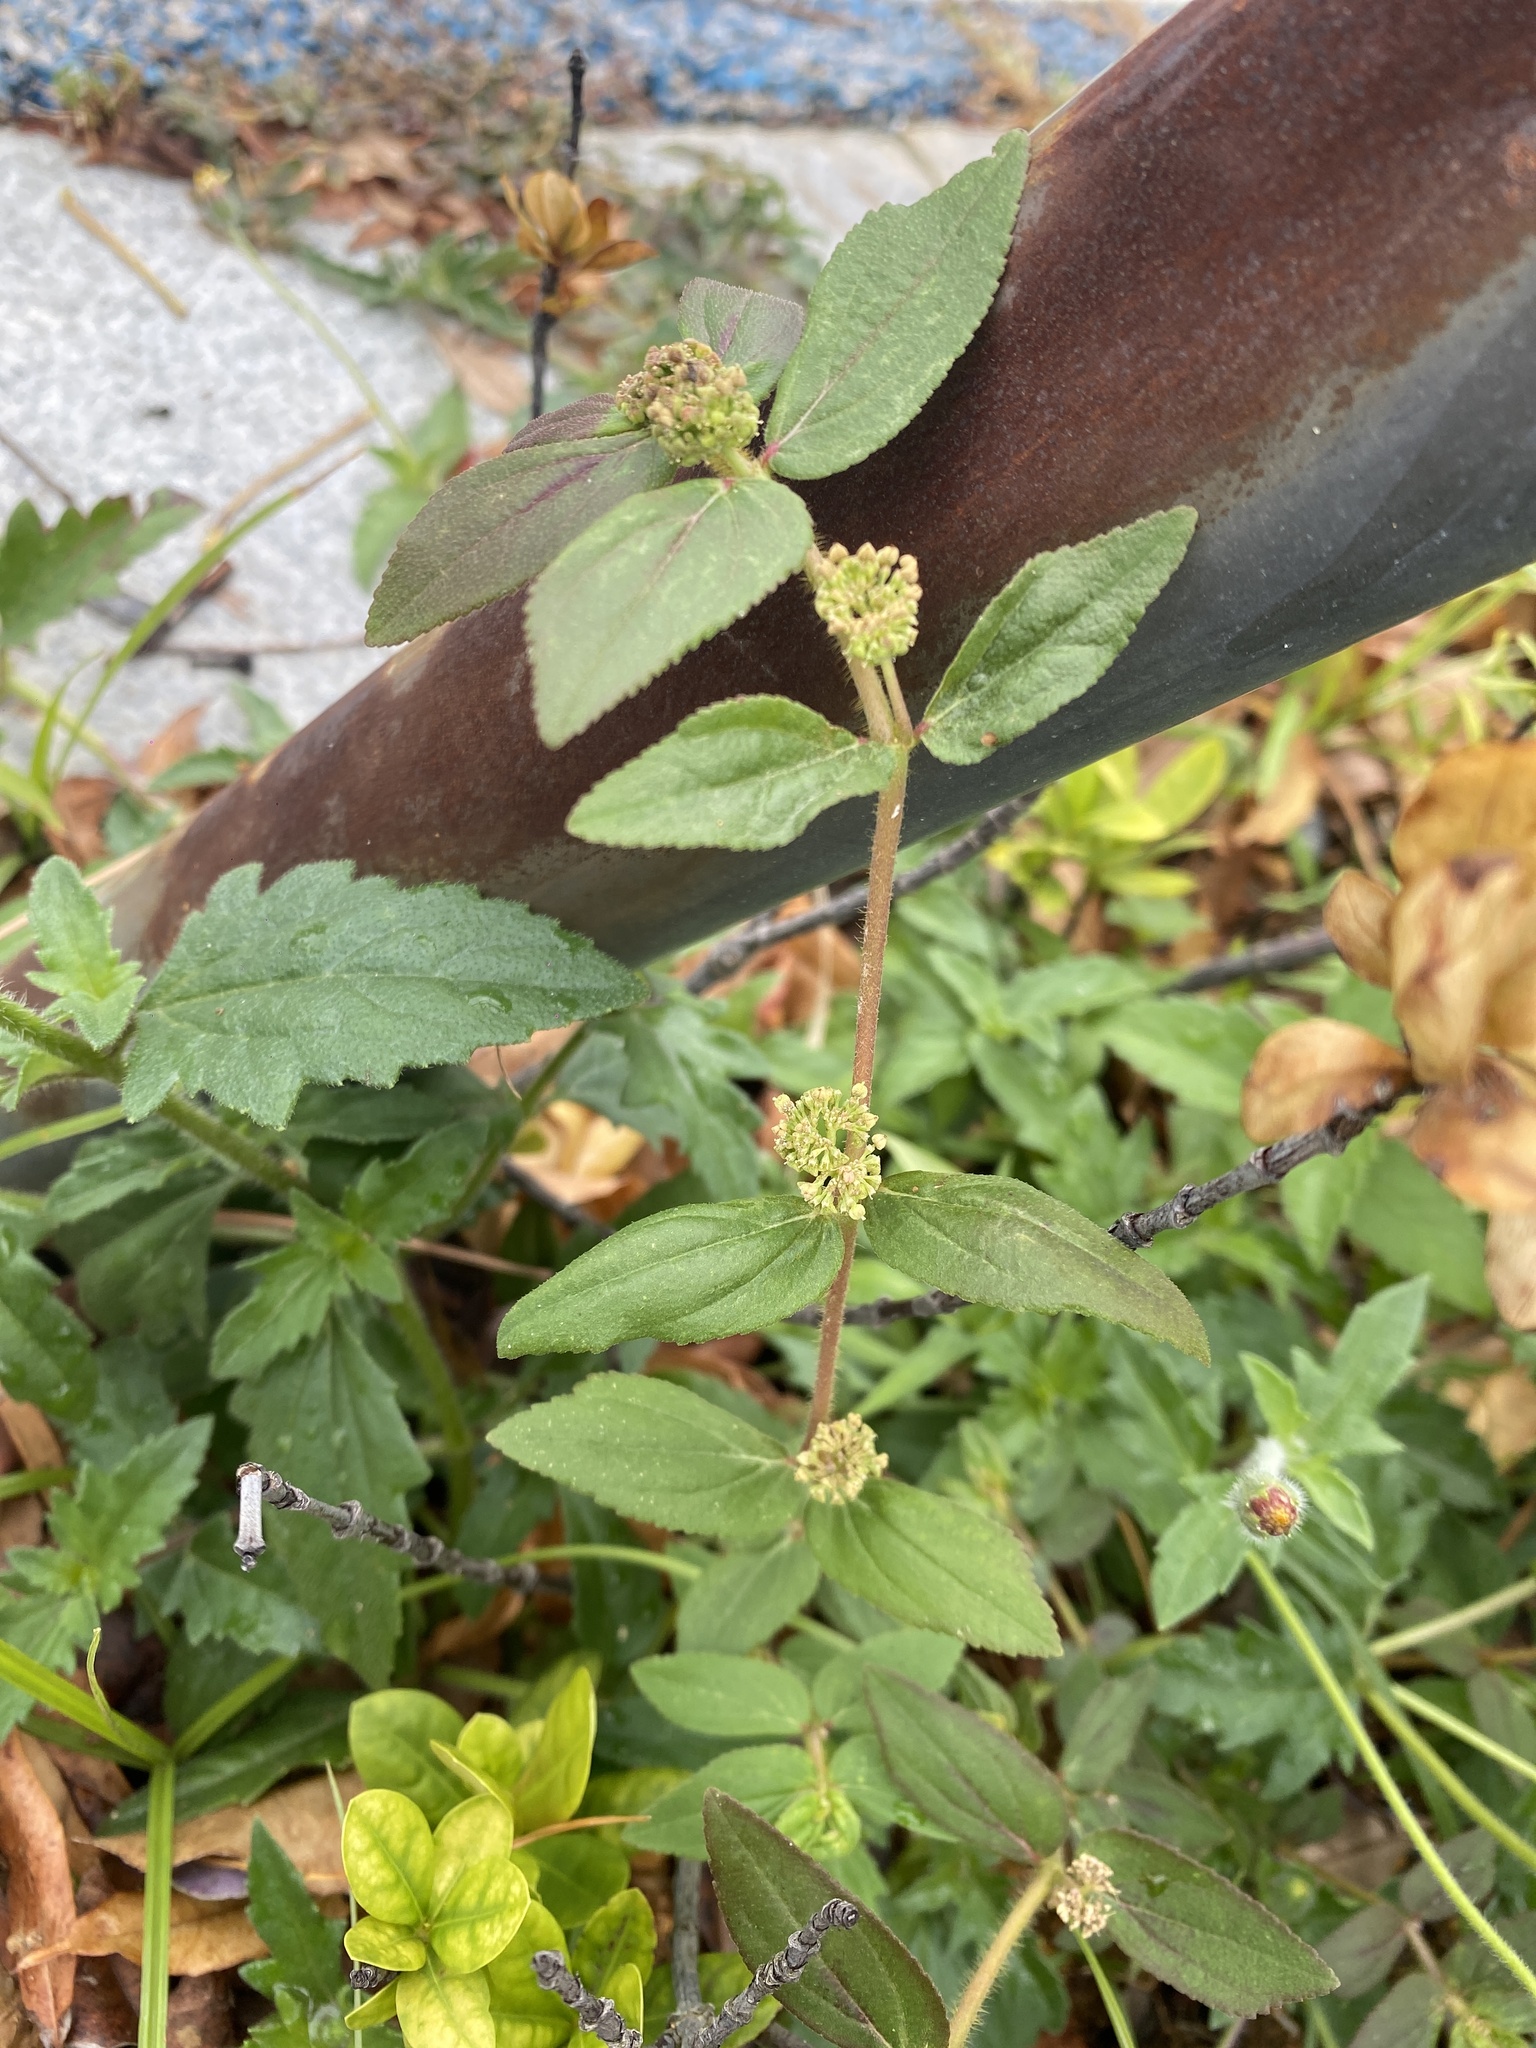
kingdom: Plantae
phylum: Tracheophyta
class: Magnoliopsida
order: Malpighiales
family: Euphorbiaceae
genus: Euphorbia
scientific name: Euphorbia hirta
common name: Pillpod sandmat
